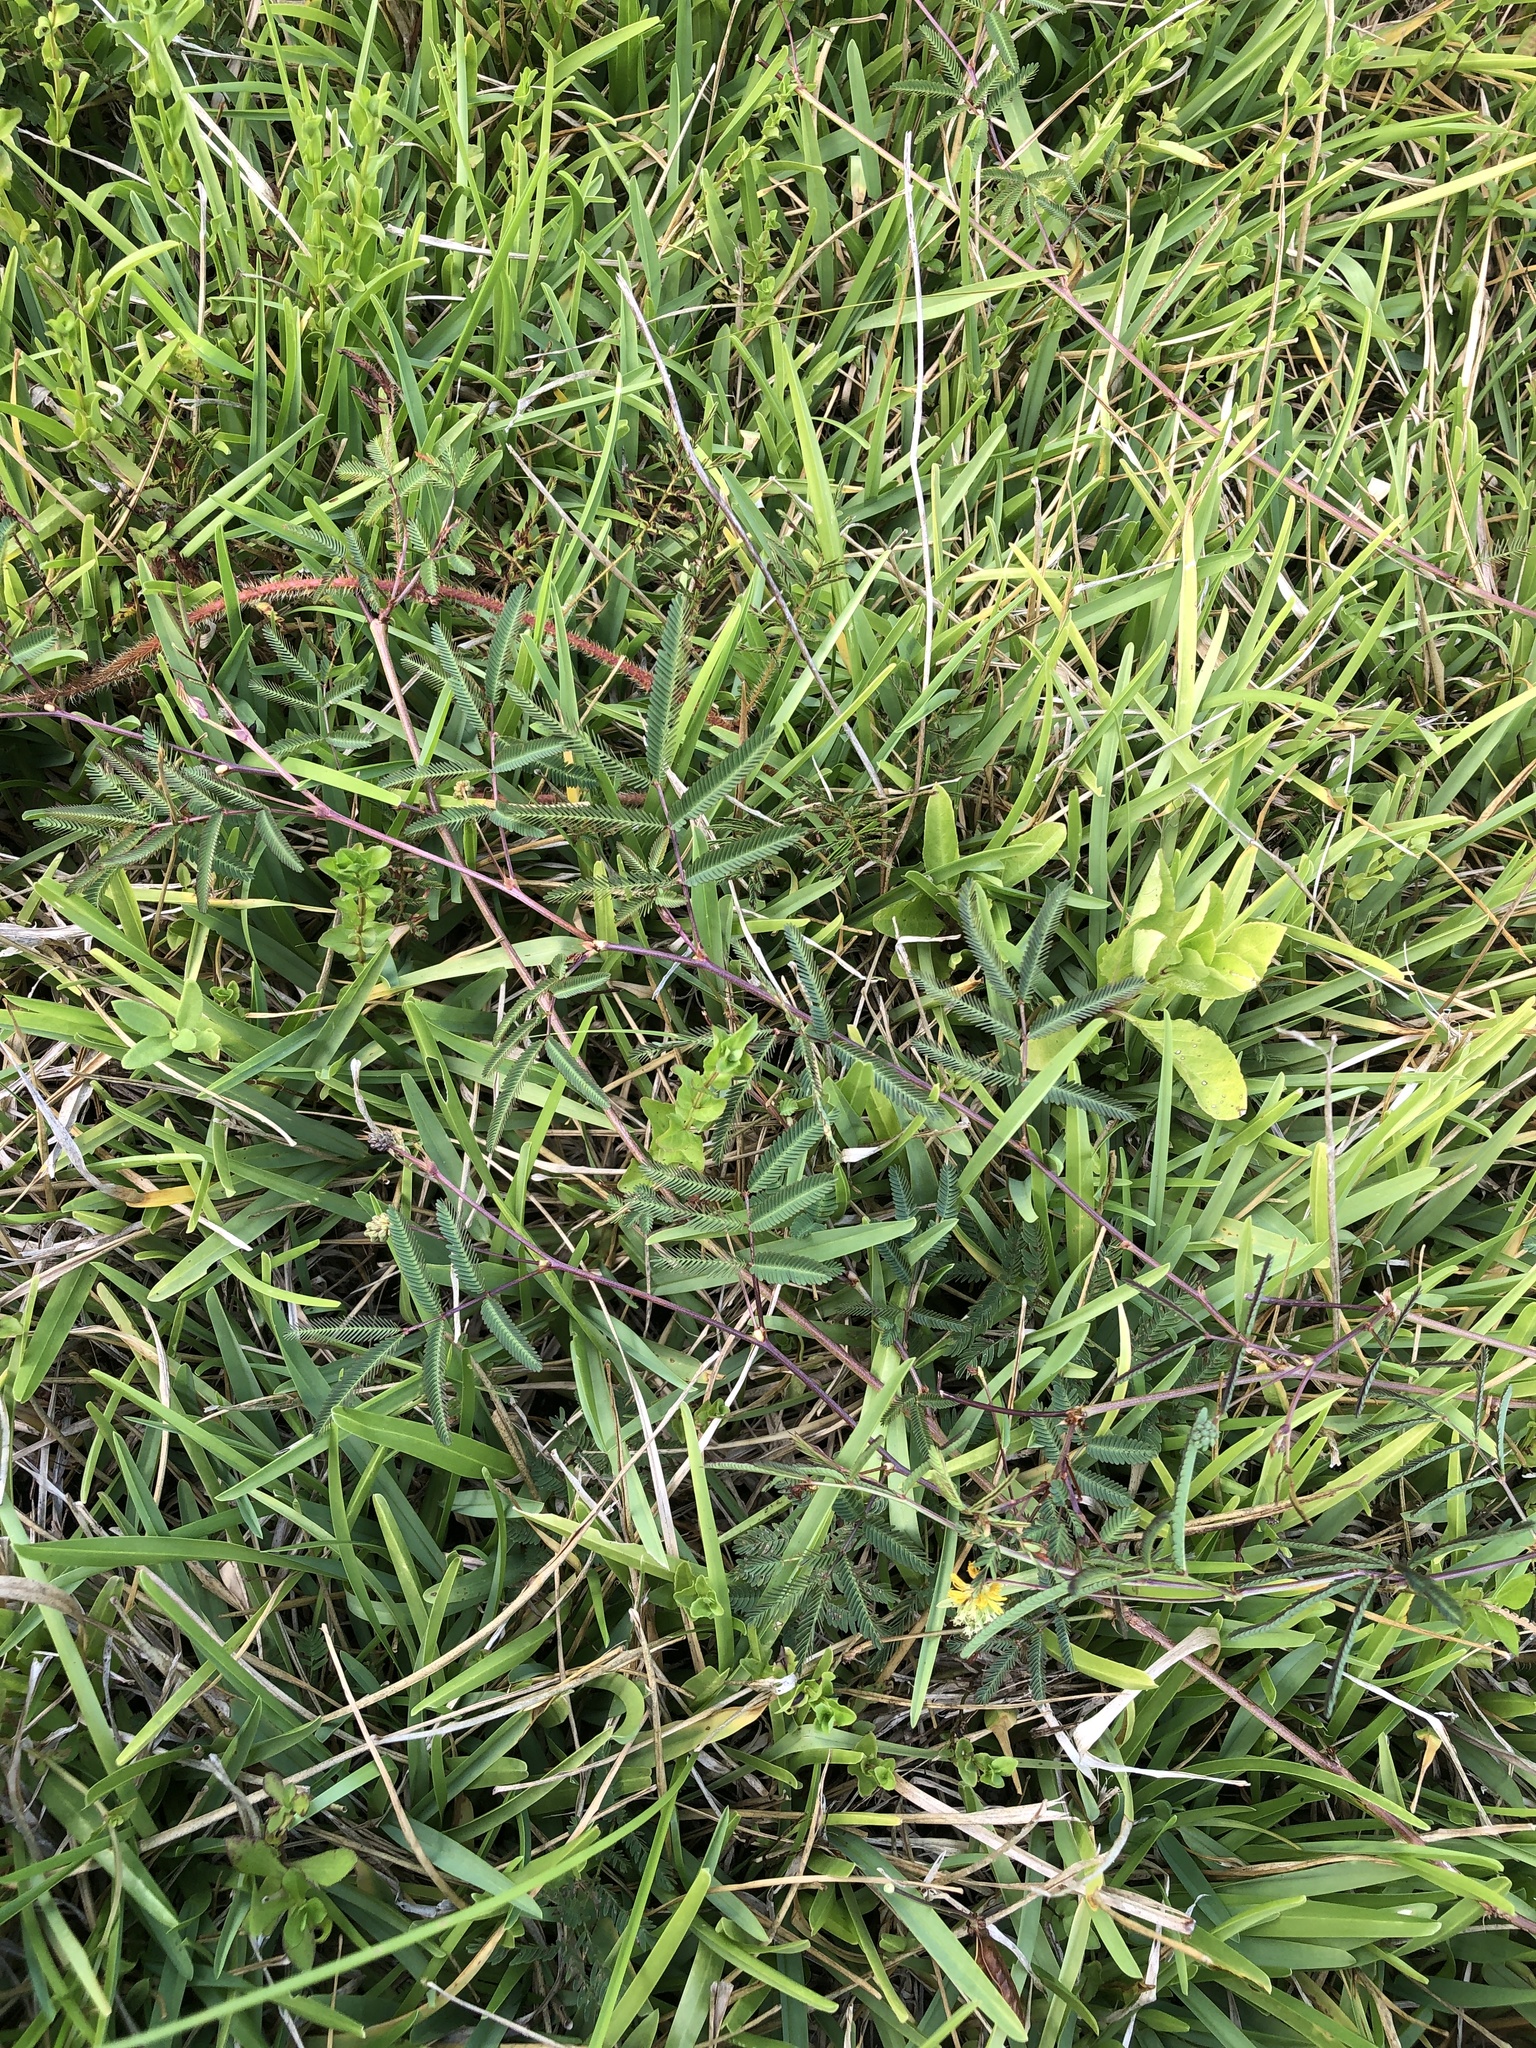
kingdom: Plantae
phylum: Tracheophyta
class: Magnoliopsida
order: Fabales
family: Fabaceae
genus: Neptunia
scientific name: Neptunia pubescens
